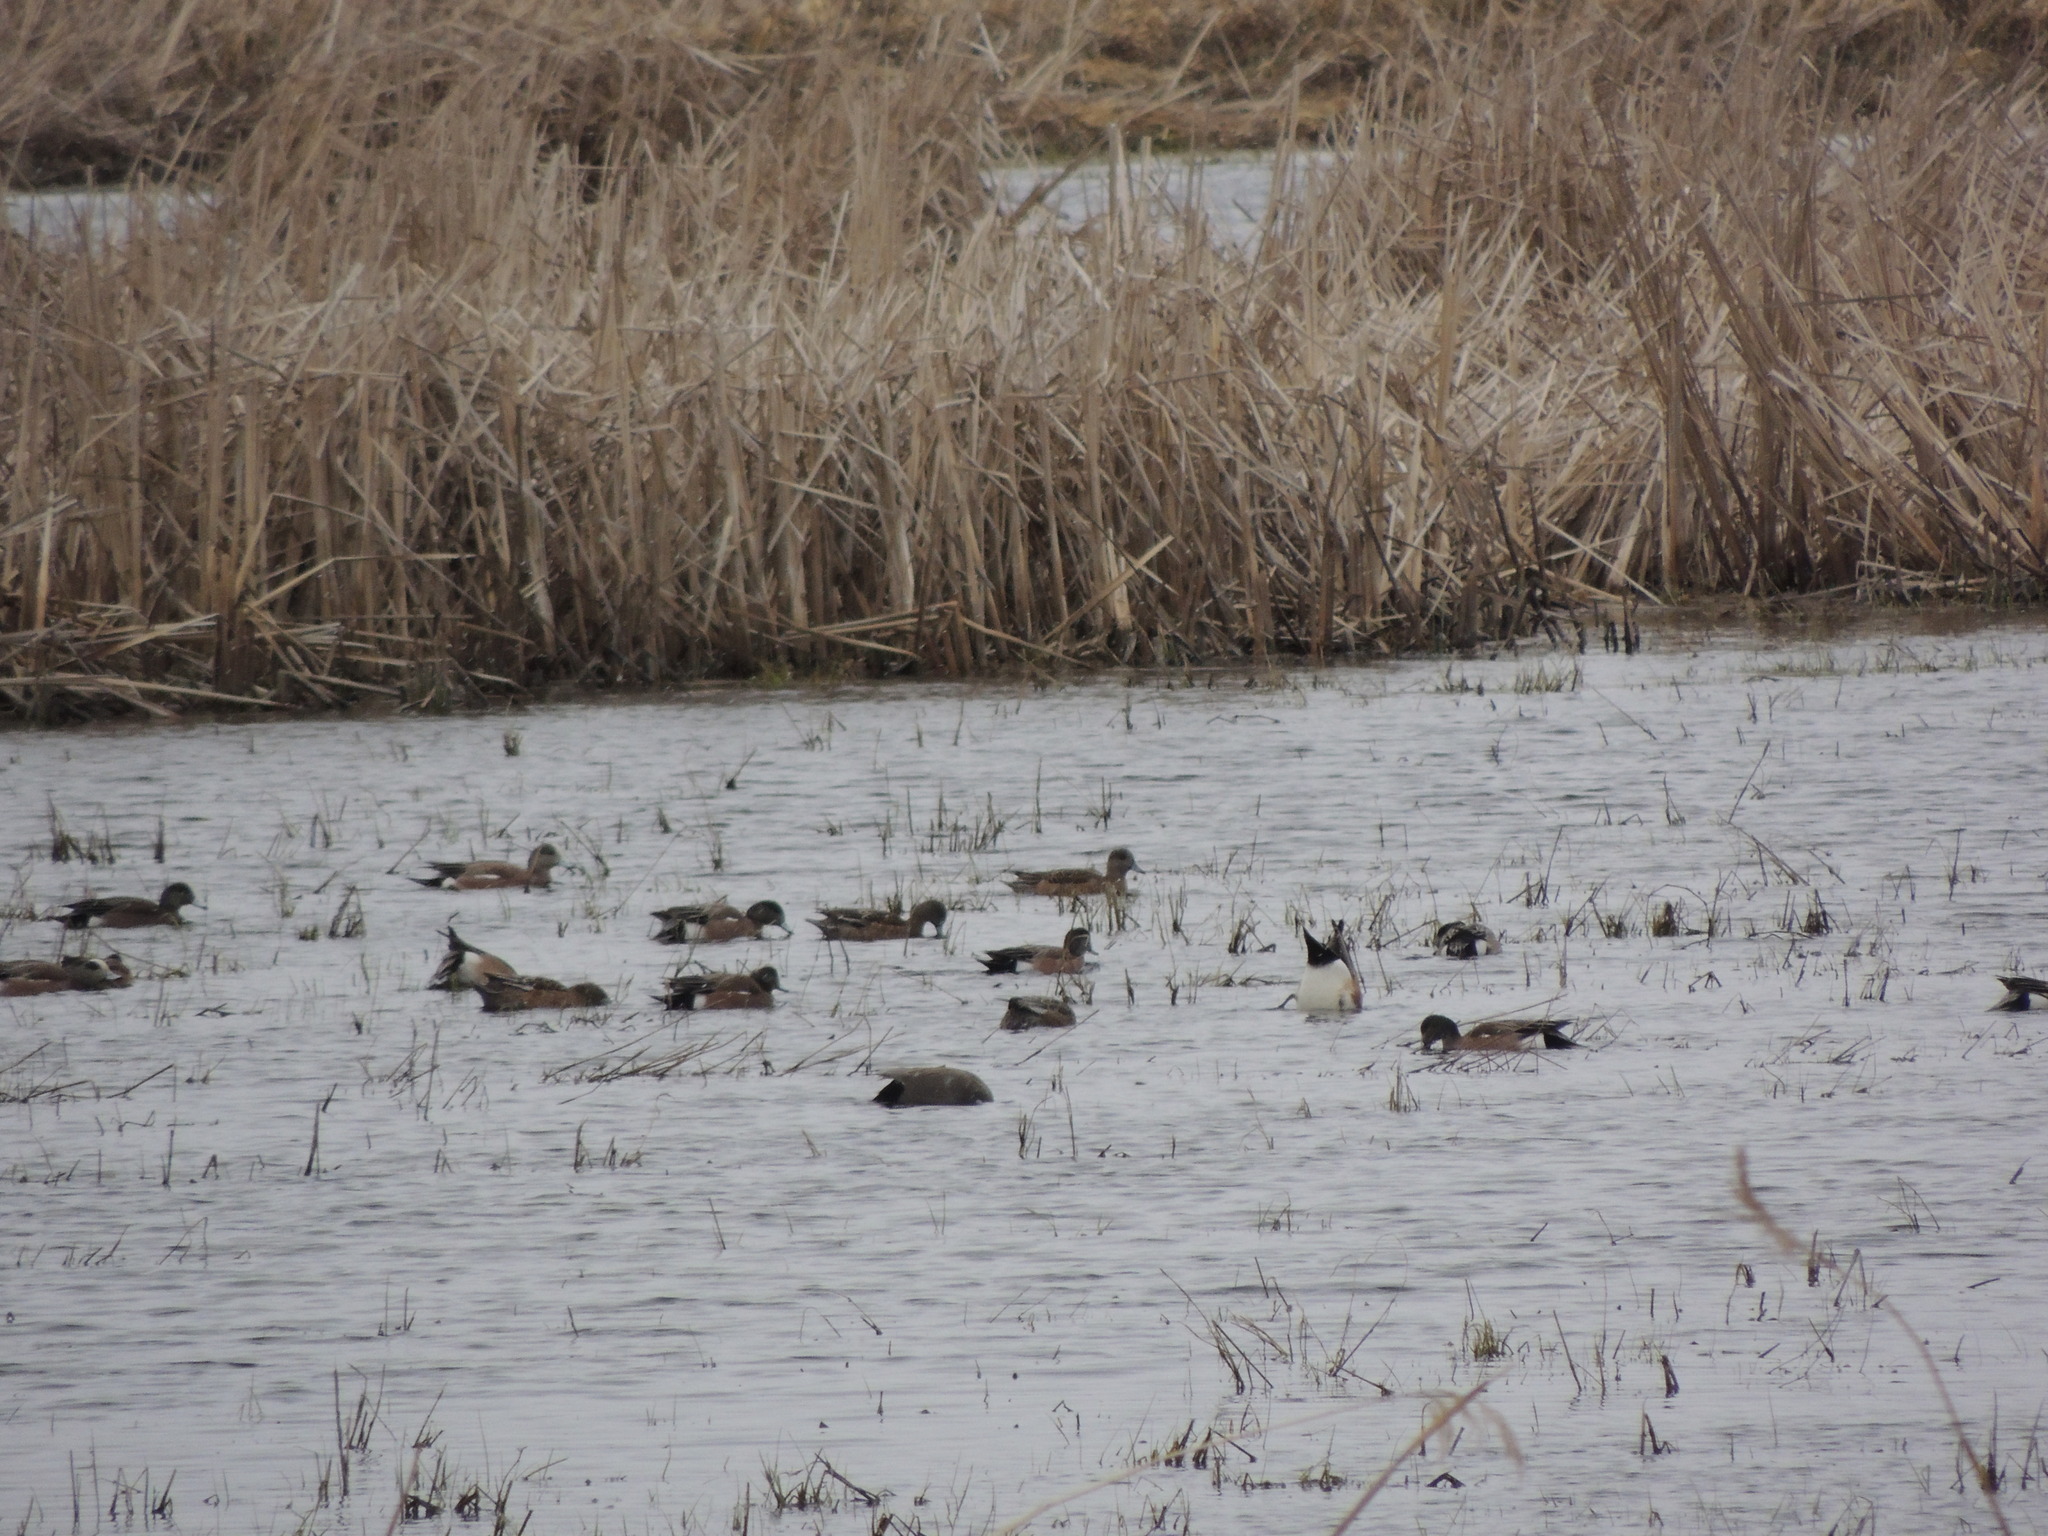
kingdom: Animalia
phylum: Chordata
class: Aves
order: Anseriformes
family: Anatidae
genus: Mareca
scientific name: Mareca americana
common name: American wigeon
